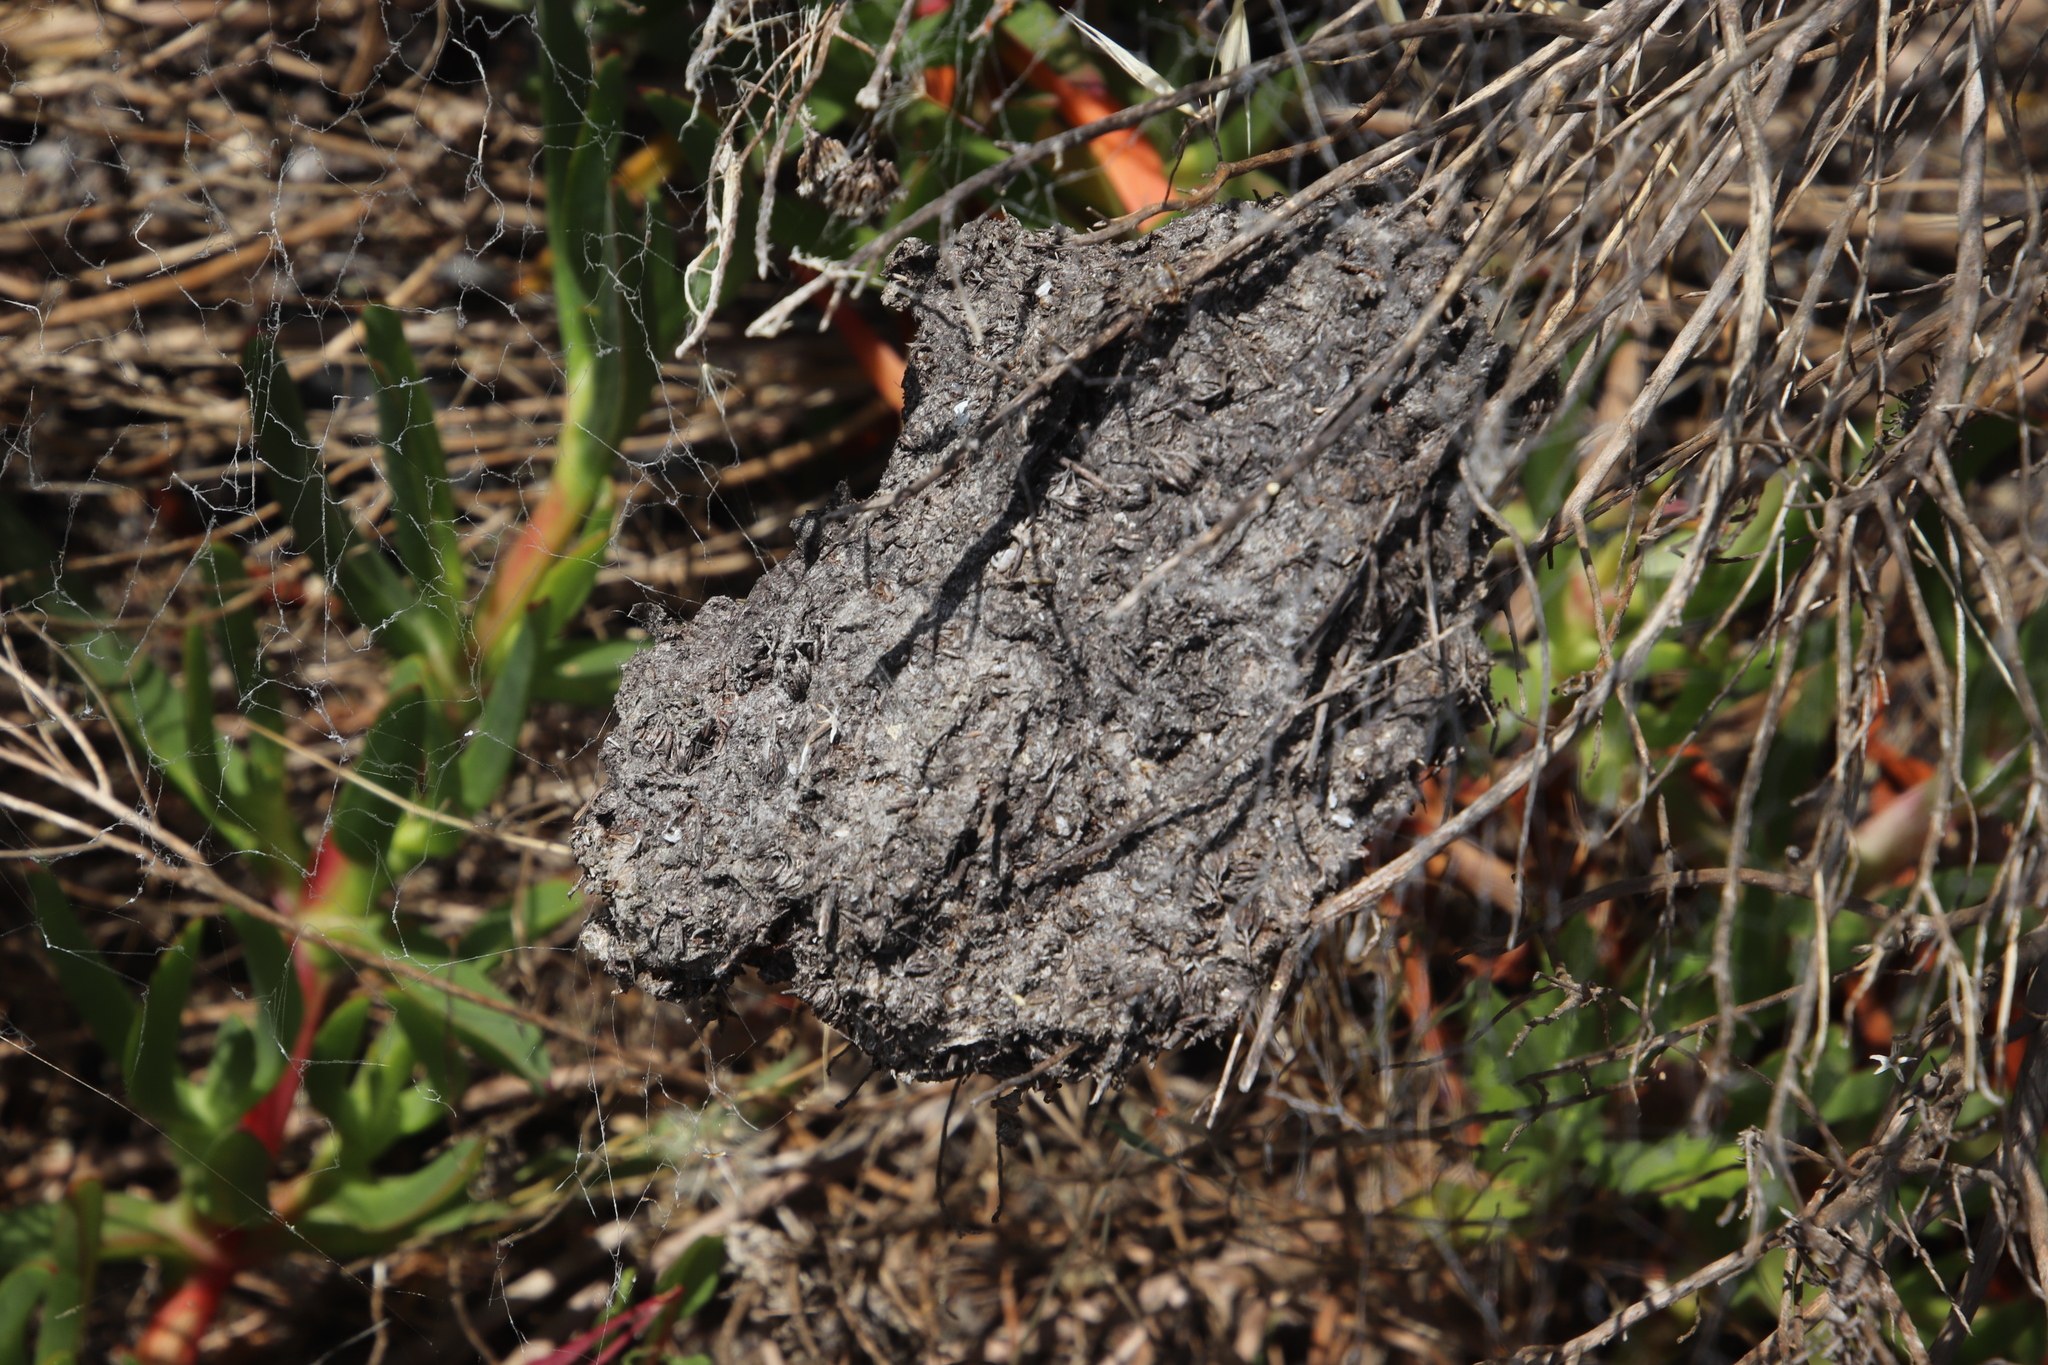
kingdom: Animalia
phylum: Arthropoda
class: Insecta
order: Hymenoptera
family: Formicidae
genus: Crematogaster
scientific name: Crematogaster peringueyi
